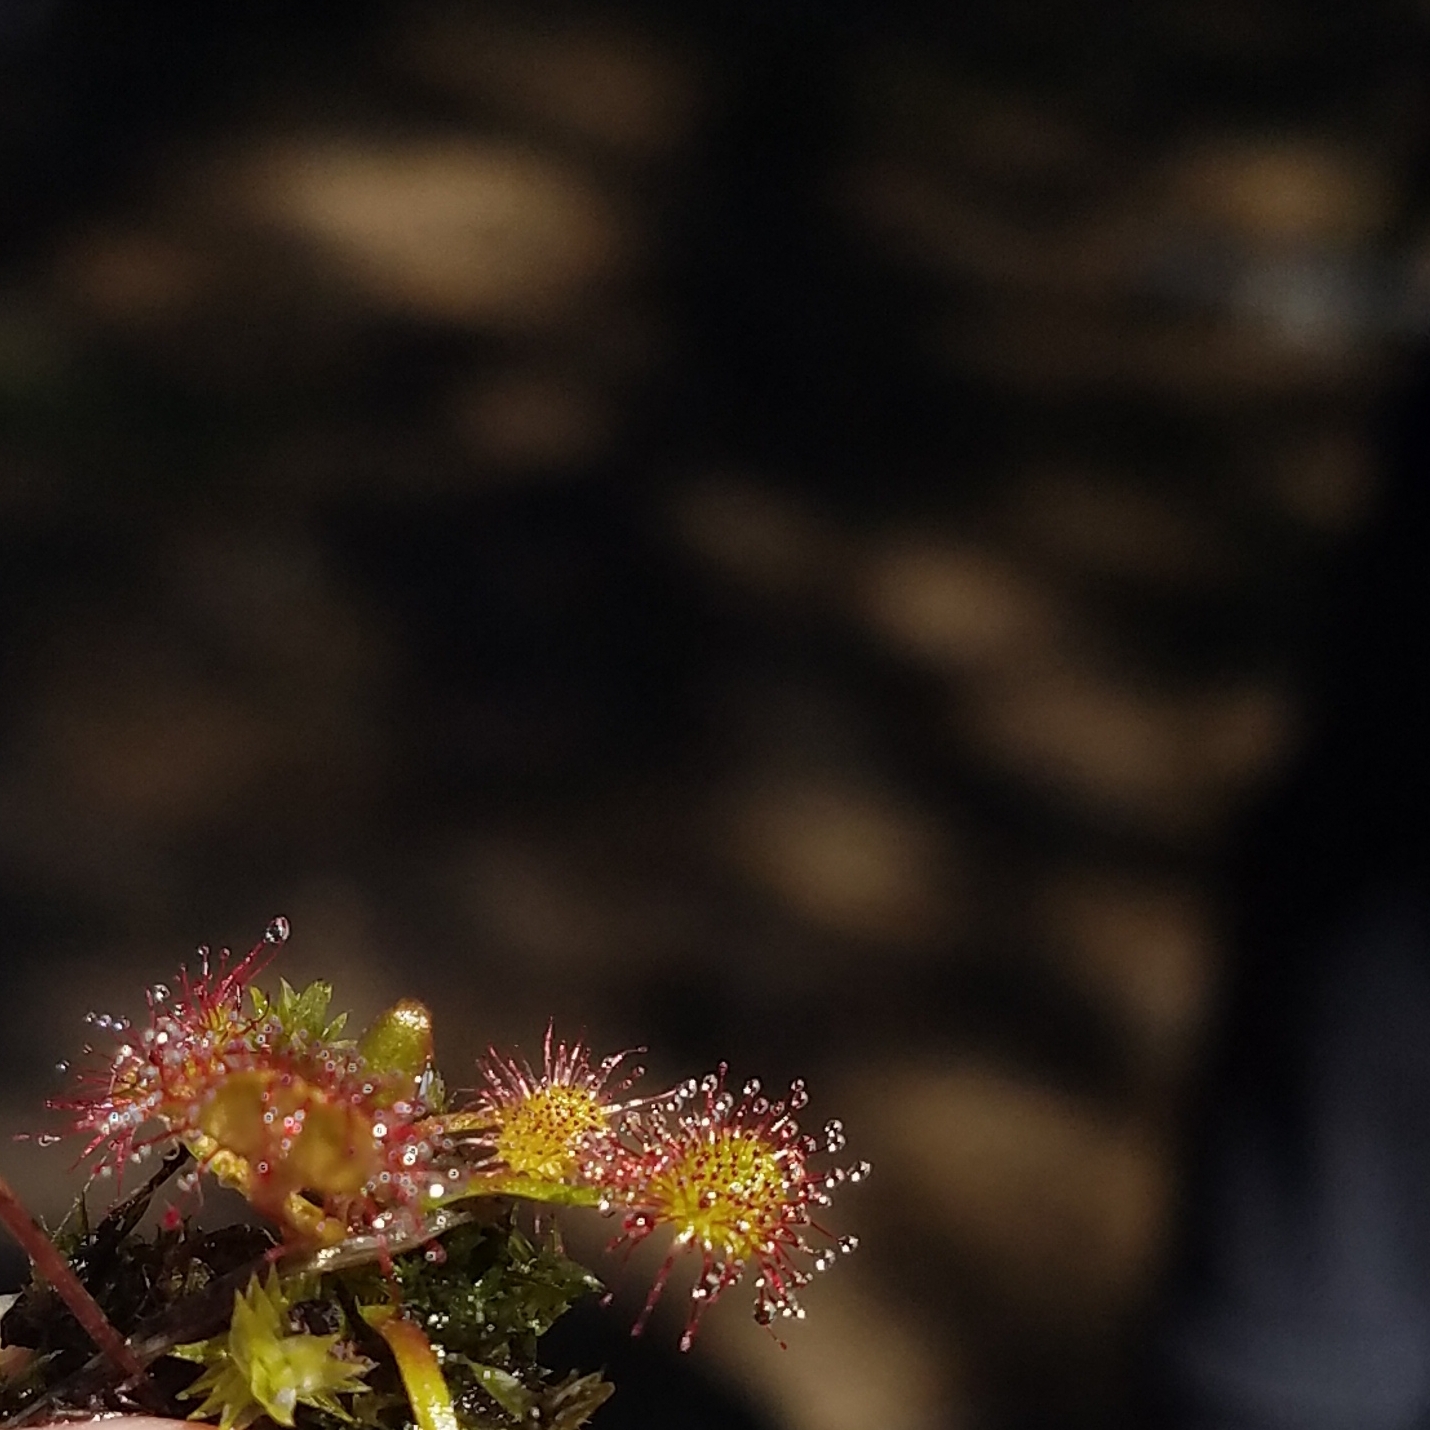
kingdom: Plantae
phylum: Tracheophyta
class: Magnoliopsida
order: Caryophyllales
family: Droseraceae
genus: Drosera
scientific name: Drosera rotundifolia
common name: Round-leaved sundew
